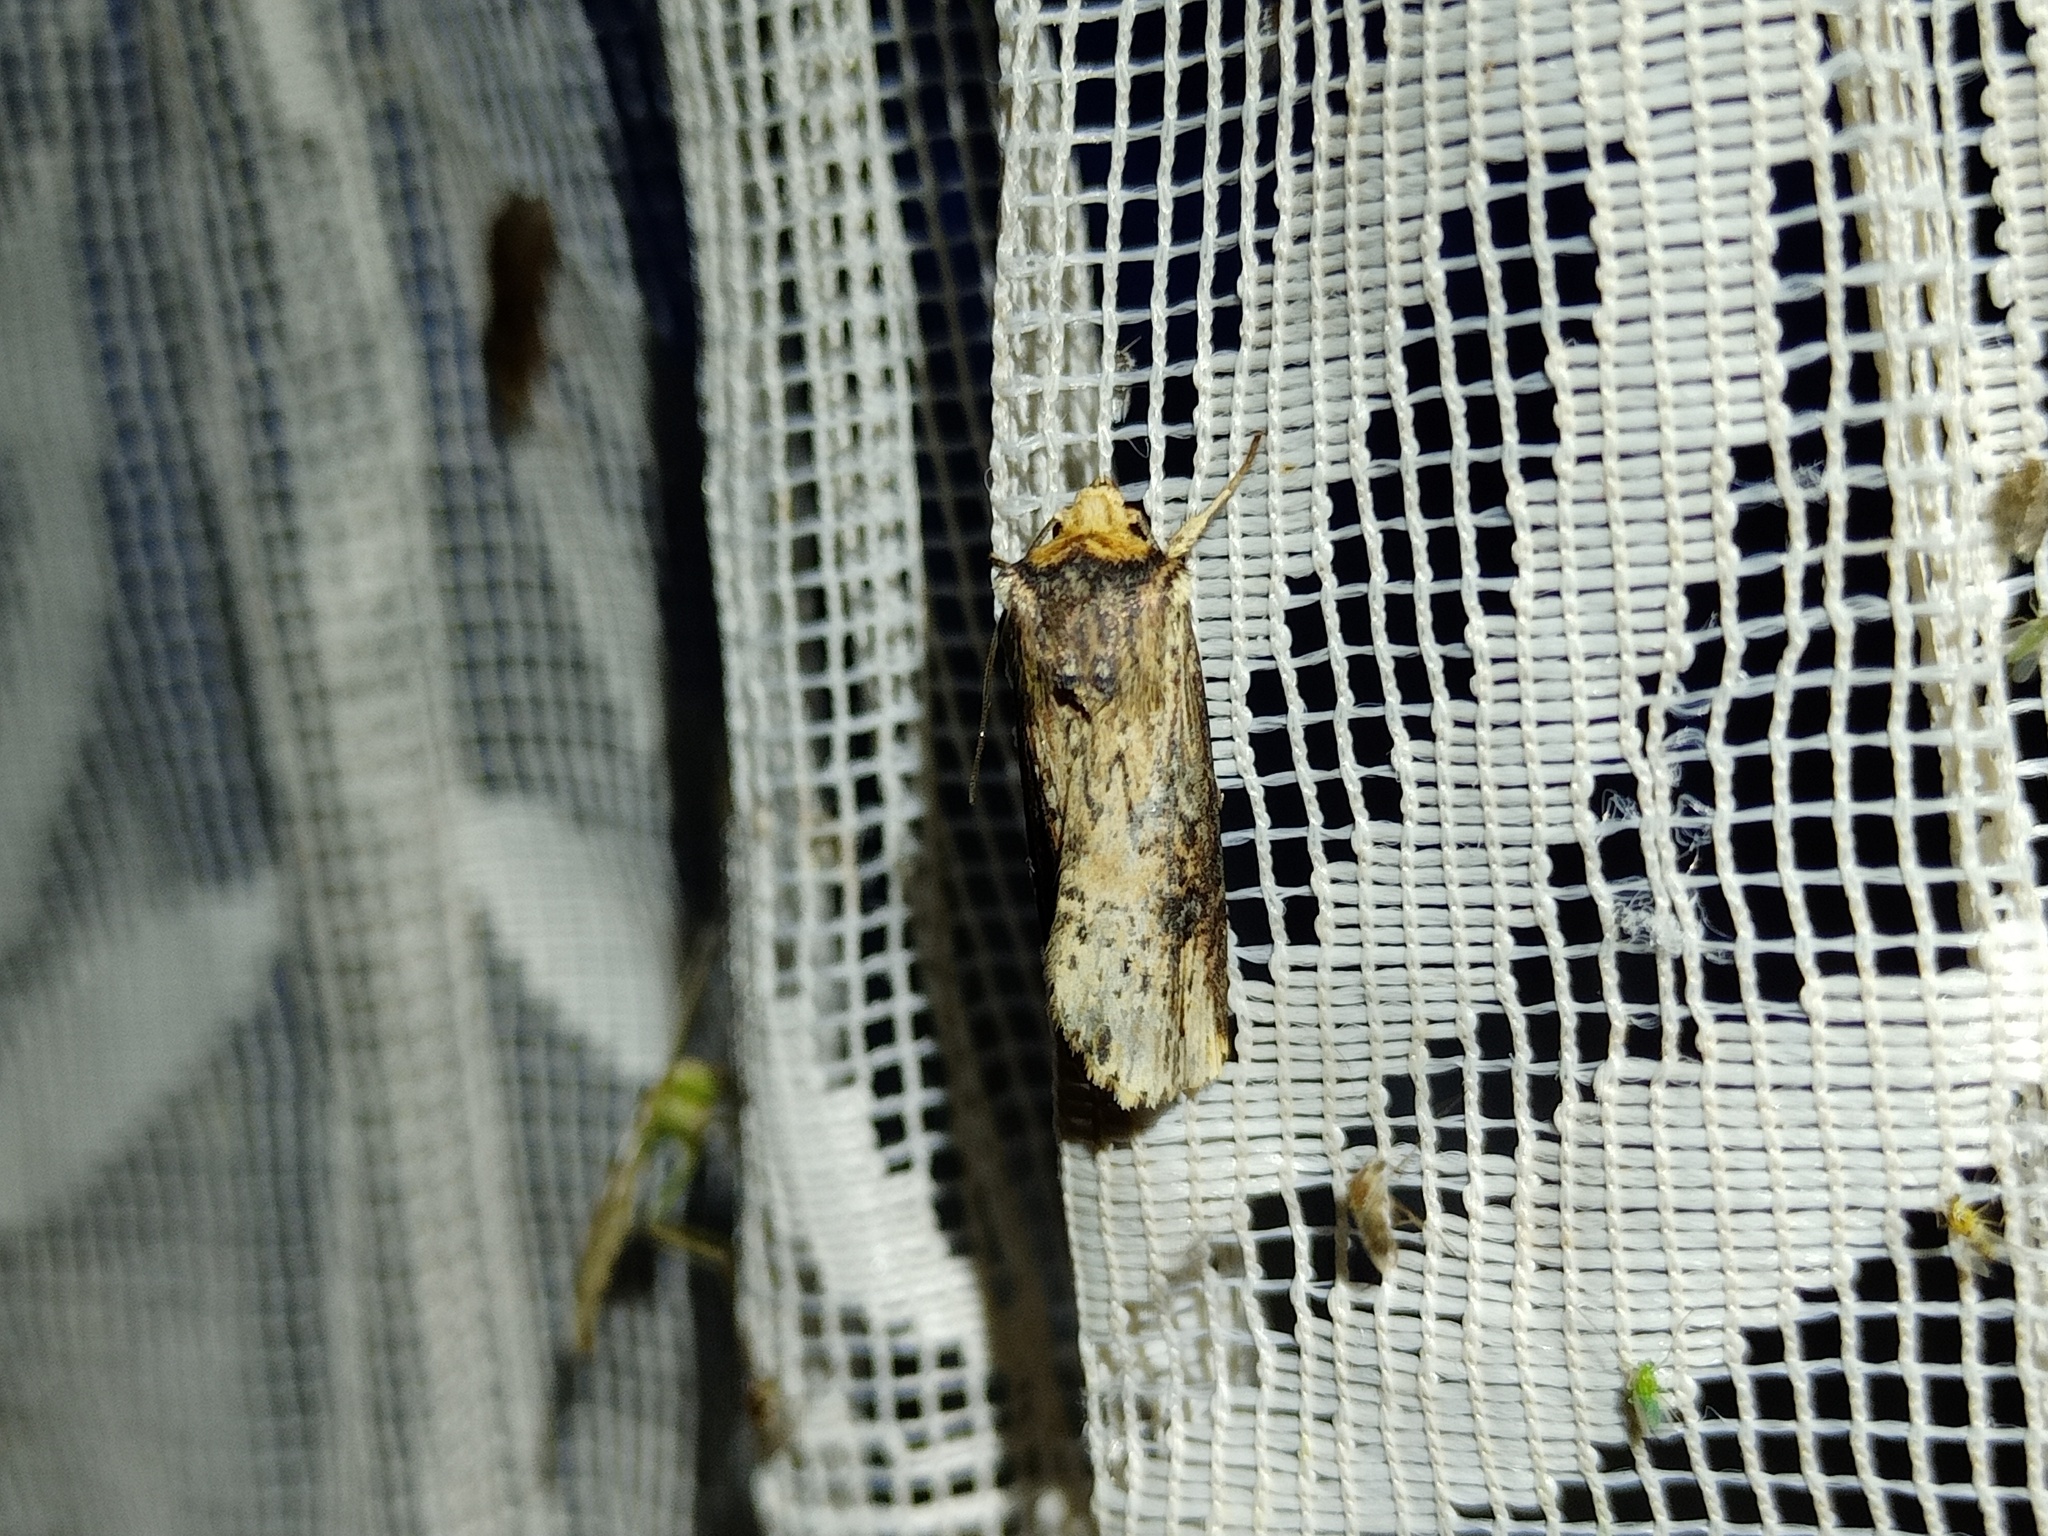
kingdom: Animalia
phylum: Arthropoda
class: Insecta
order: Lepidoptera
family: Noctuidae
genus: Axylia
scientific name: Axylia putris
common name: Flame
